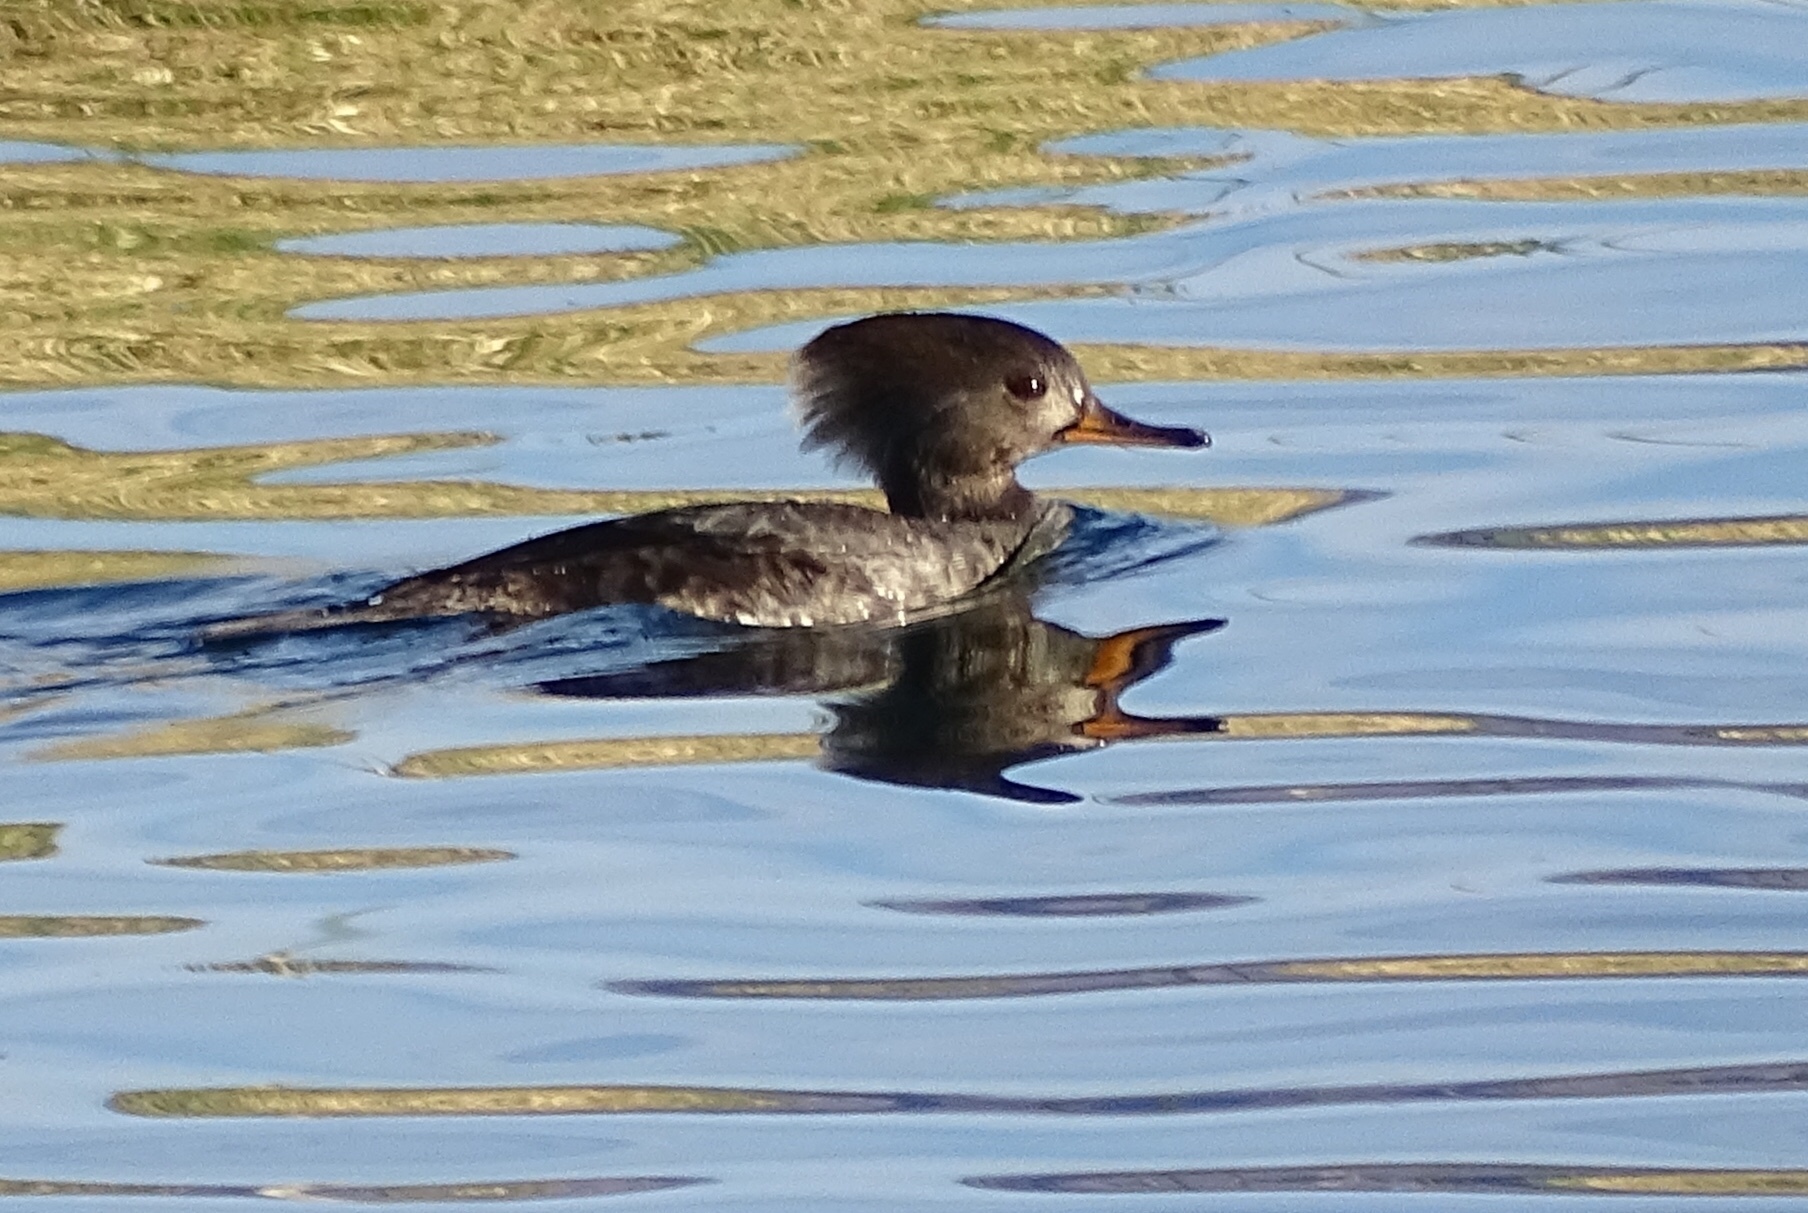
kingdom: Animalia
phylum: Chordata
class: Aves
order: Anseriformes
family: Anatidae
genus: Lophodytes
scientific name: Lophodytes cucullatus
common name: Hooded merganser
